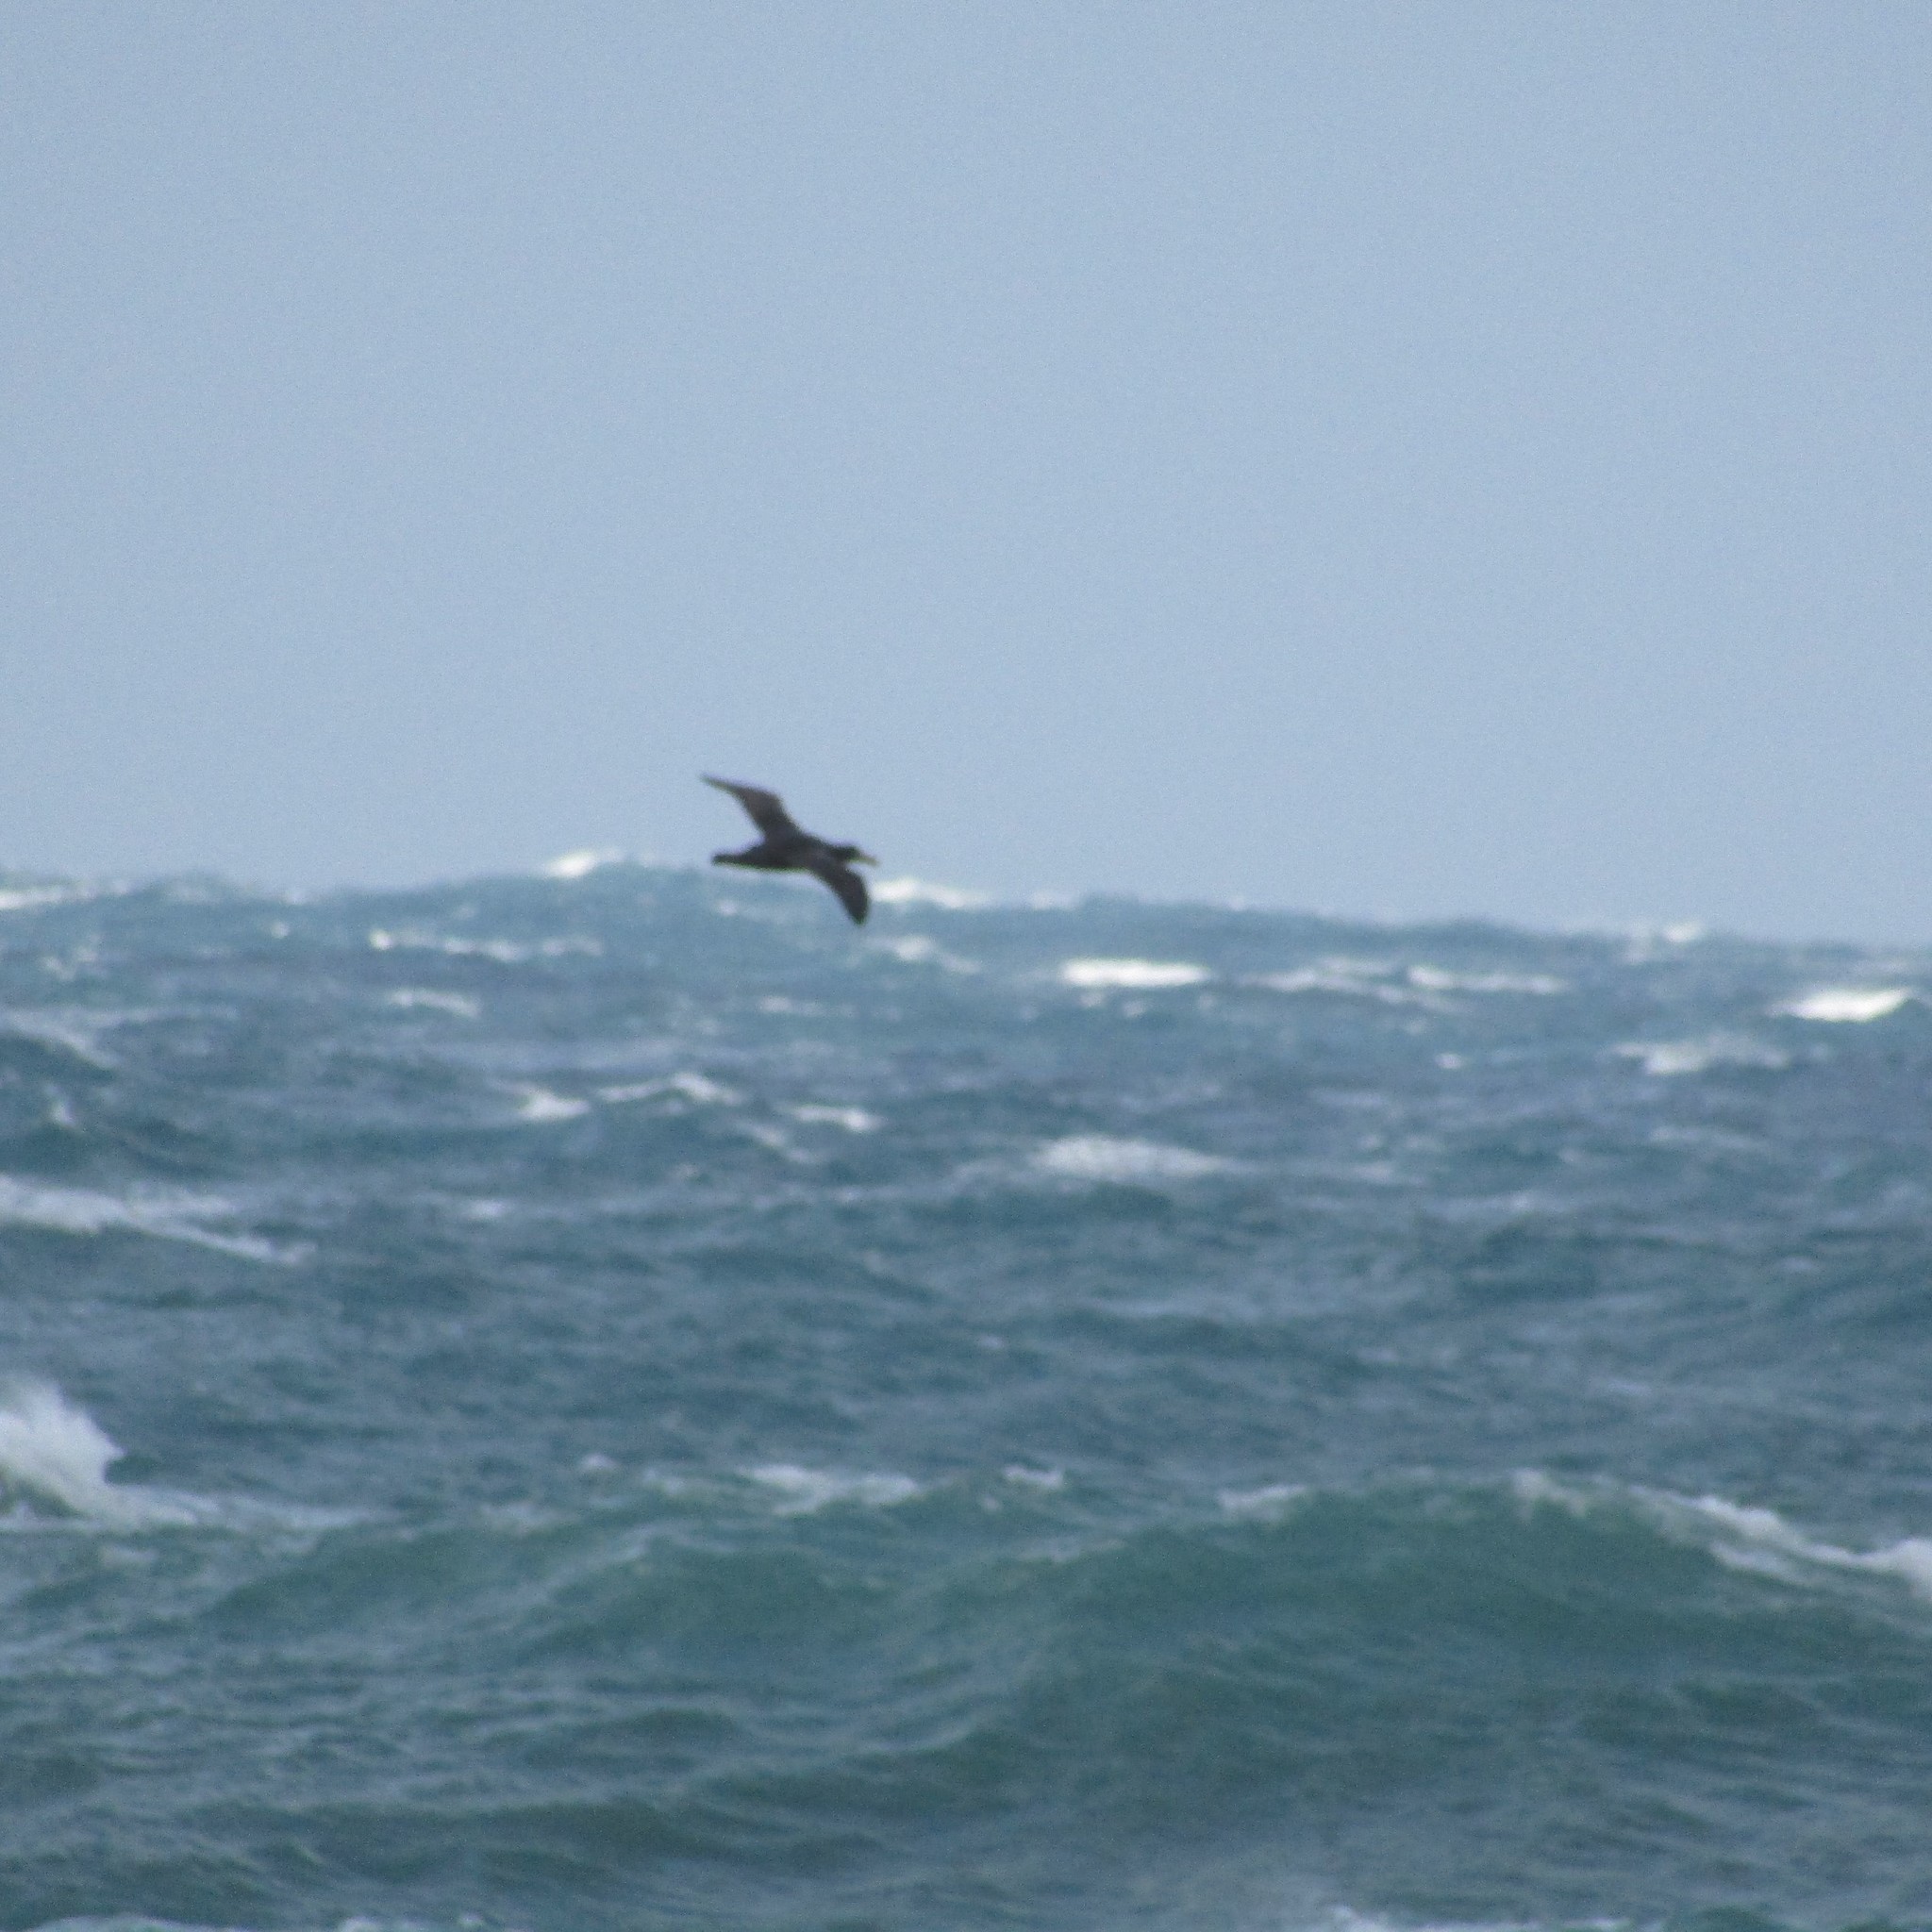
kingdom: Animalia
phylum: Chordata
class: Aves
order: Procellariiformes
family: Procellariidae
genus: Macronectes
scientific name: Macronectes
